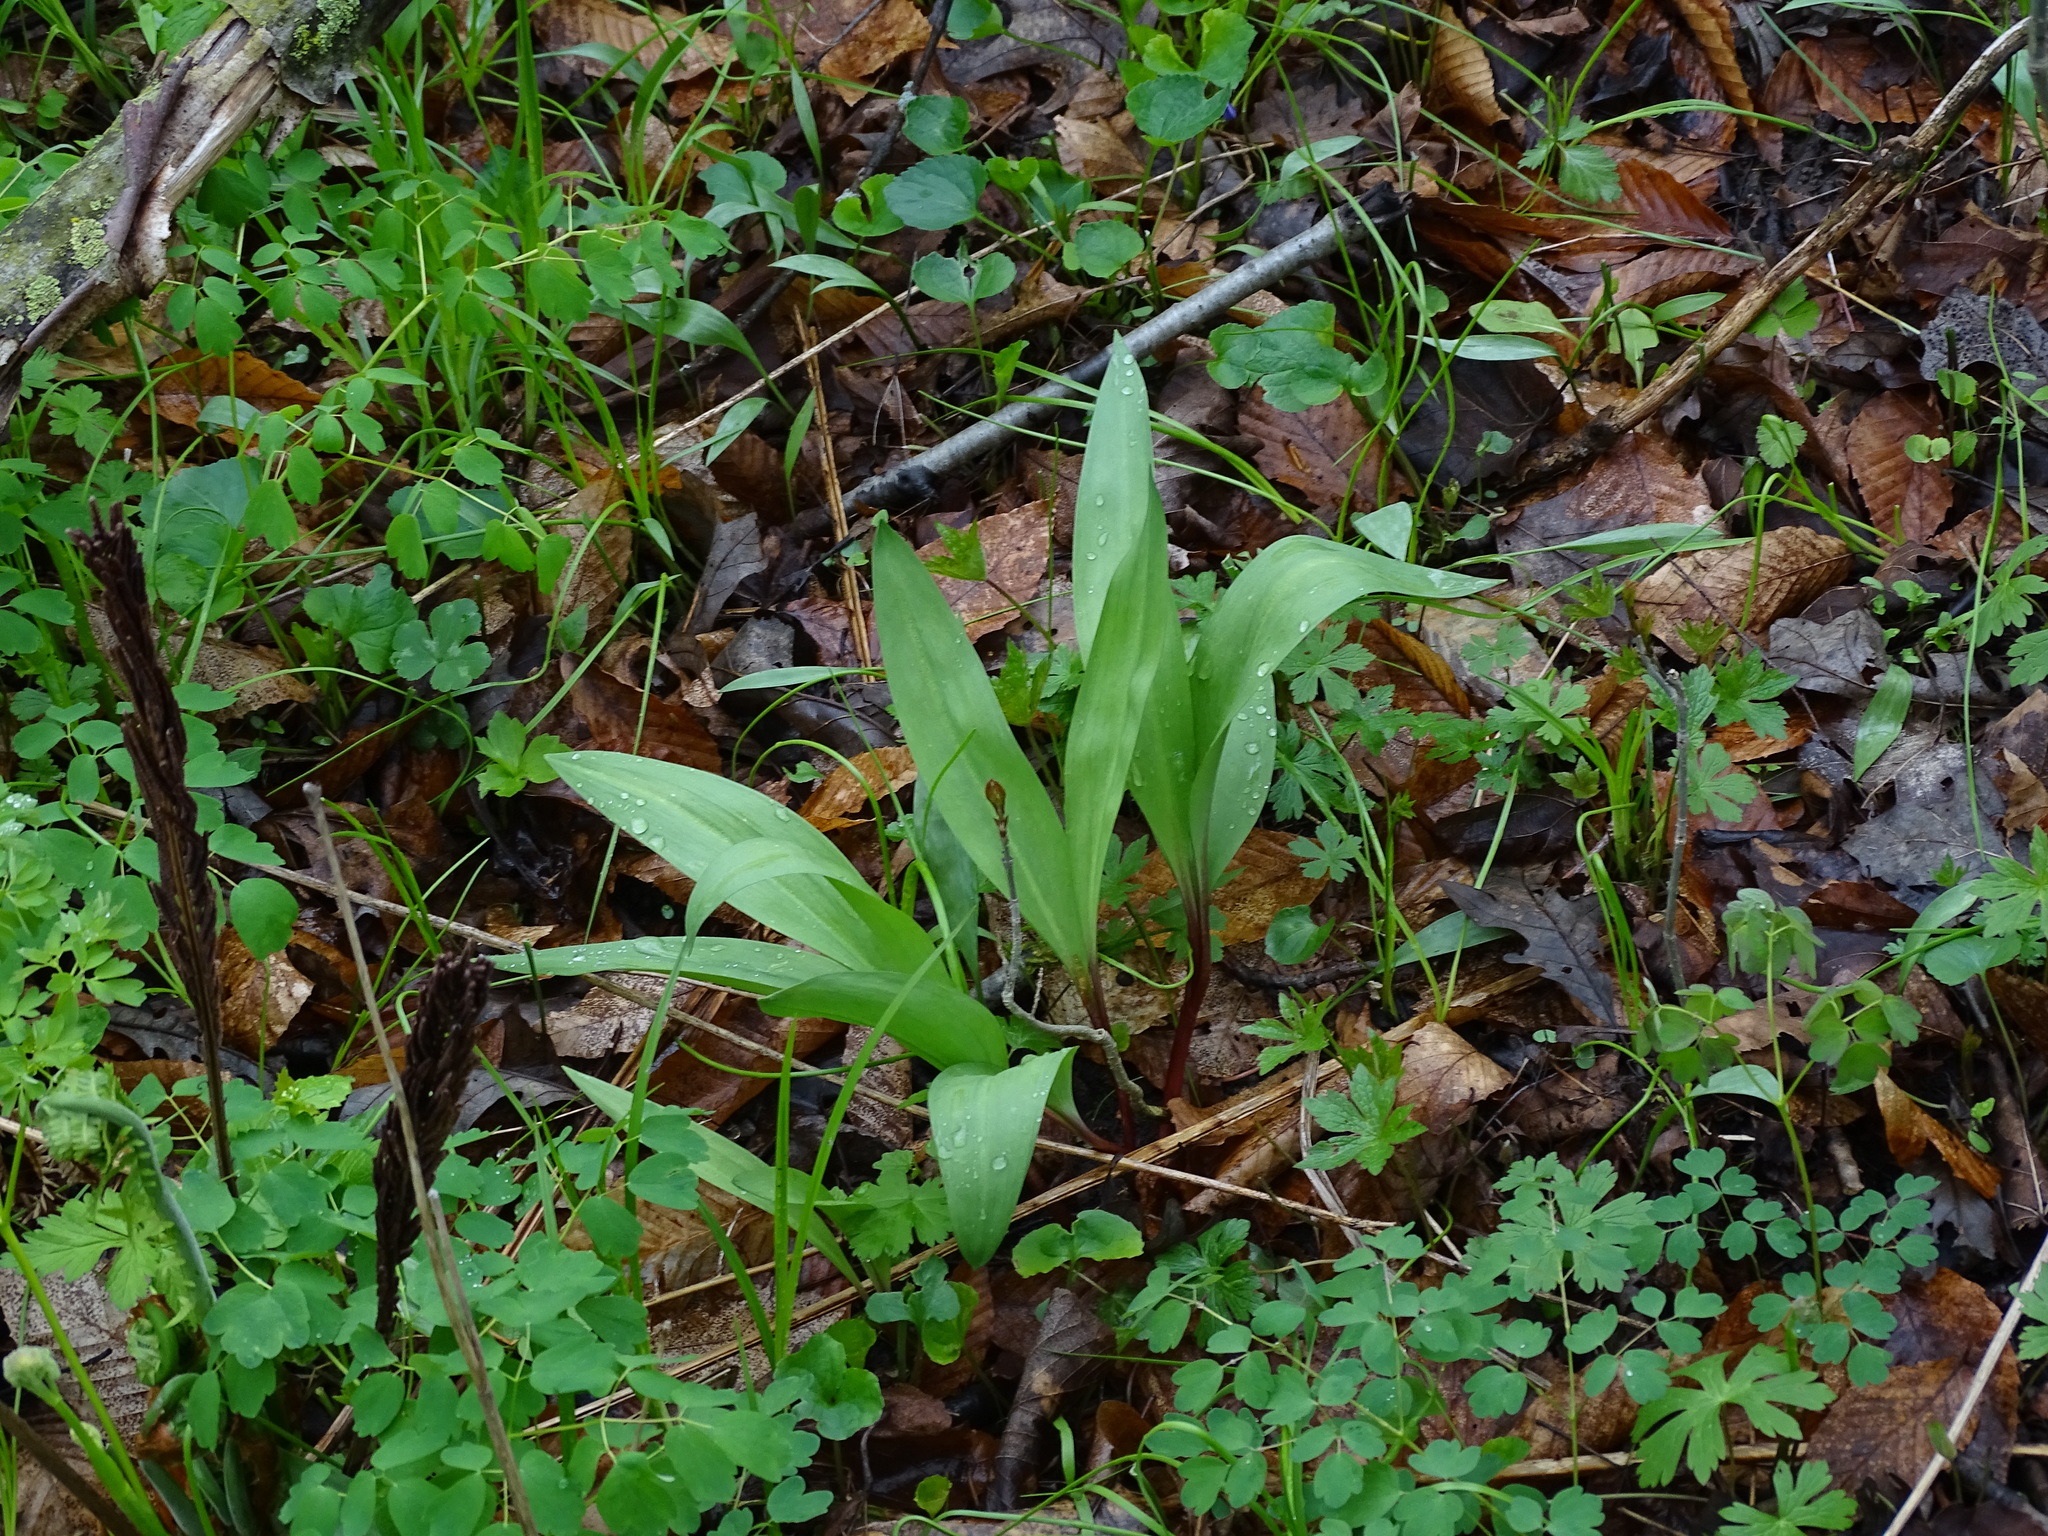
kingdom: Plantae
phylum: Tracheophyta
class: Liliopsida
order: Asparagales
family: Amaryllidaceae
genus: Allium
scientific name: Allium tricoccum
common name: Ramp
